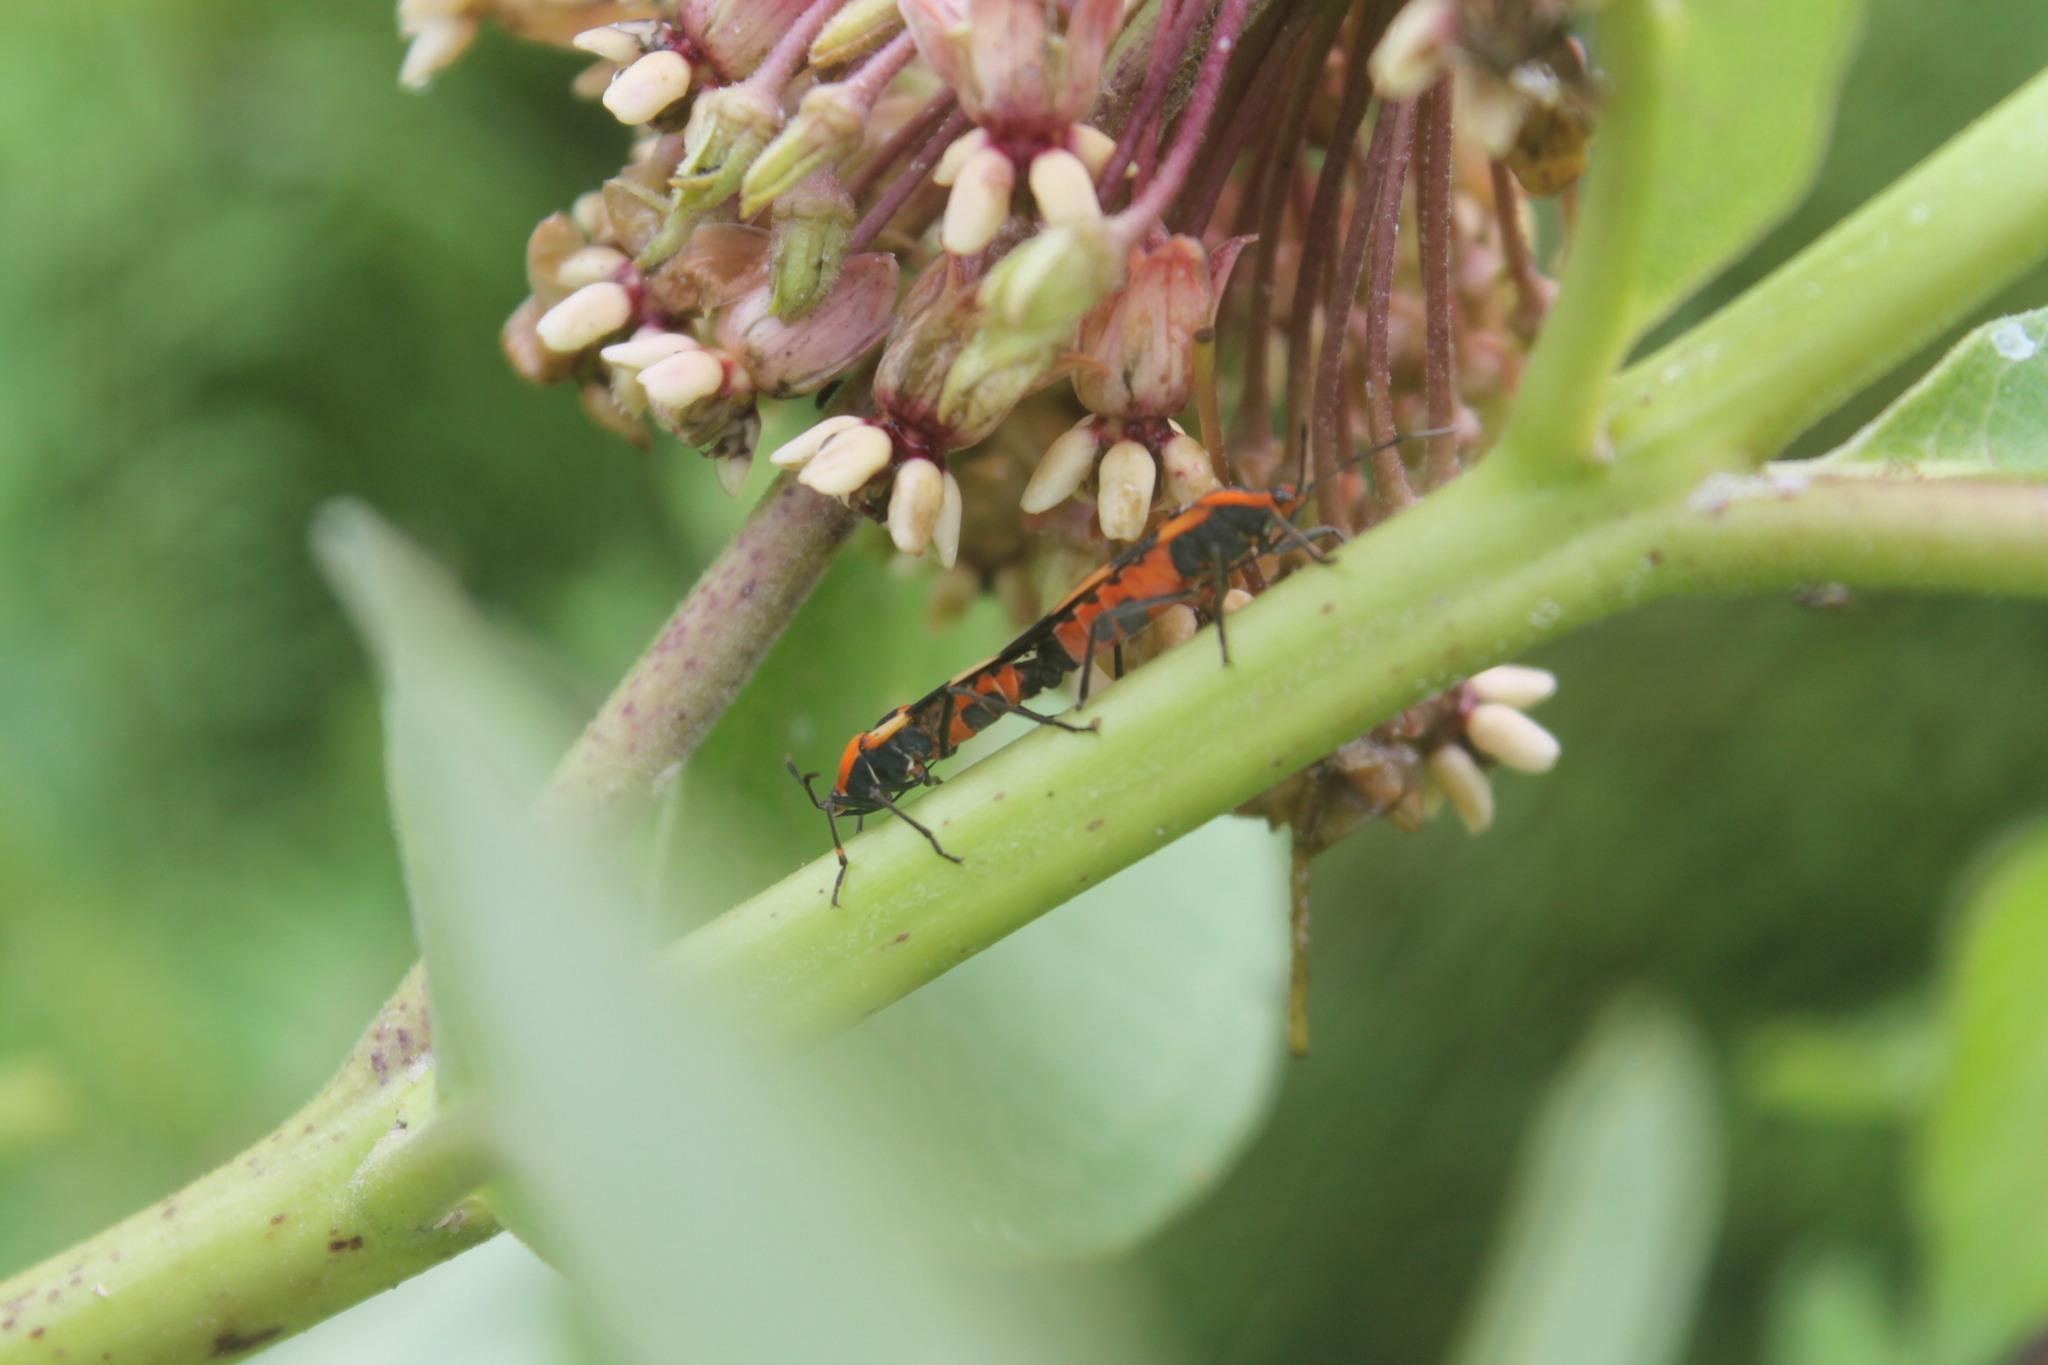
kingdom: Animalia
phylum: Arthropoda
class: Insecta
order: Hemiptera
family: Lygaeidae
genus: Oncopeltus
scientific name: Oncopeltus fasciatus
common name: Large milkweed bug
